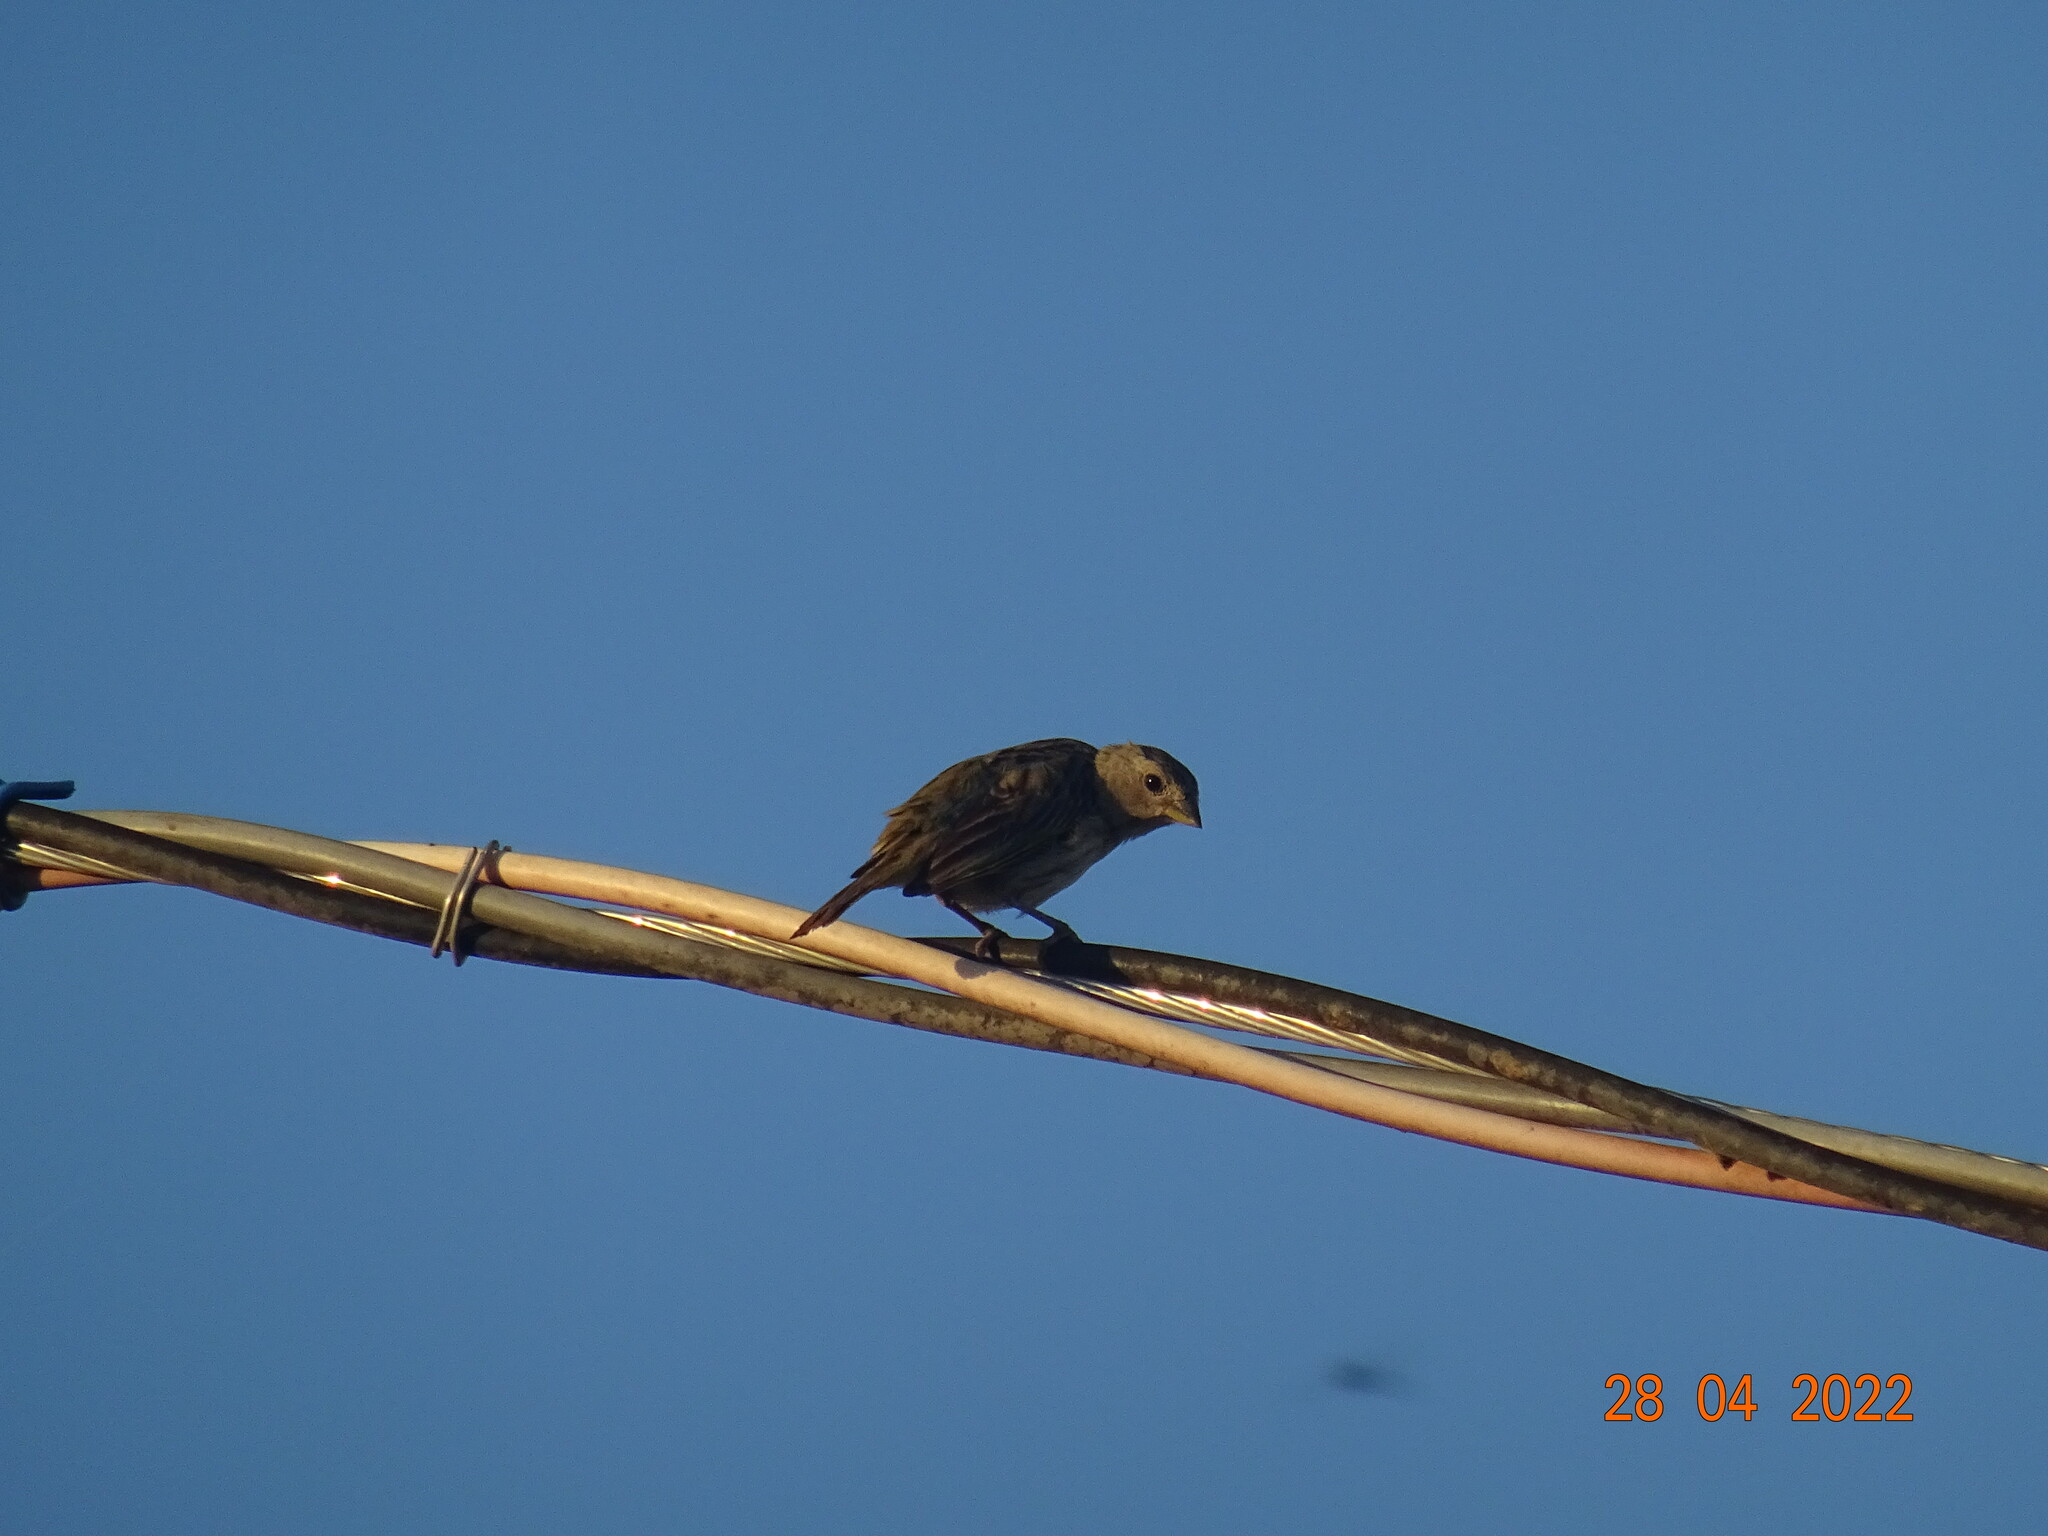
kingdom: Animalia
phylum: Chordata
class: Aves
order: Passeriformes
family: Thraupidae
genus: Sicalis
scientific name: Sicalis flaveola
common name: Saffron finch
